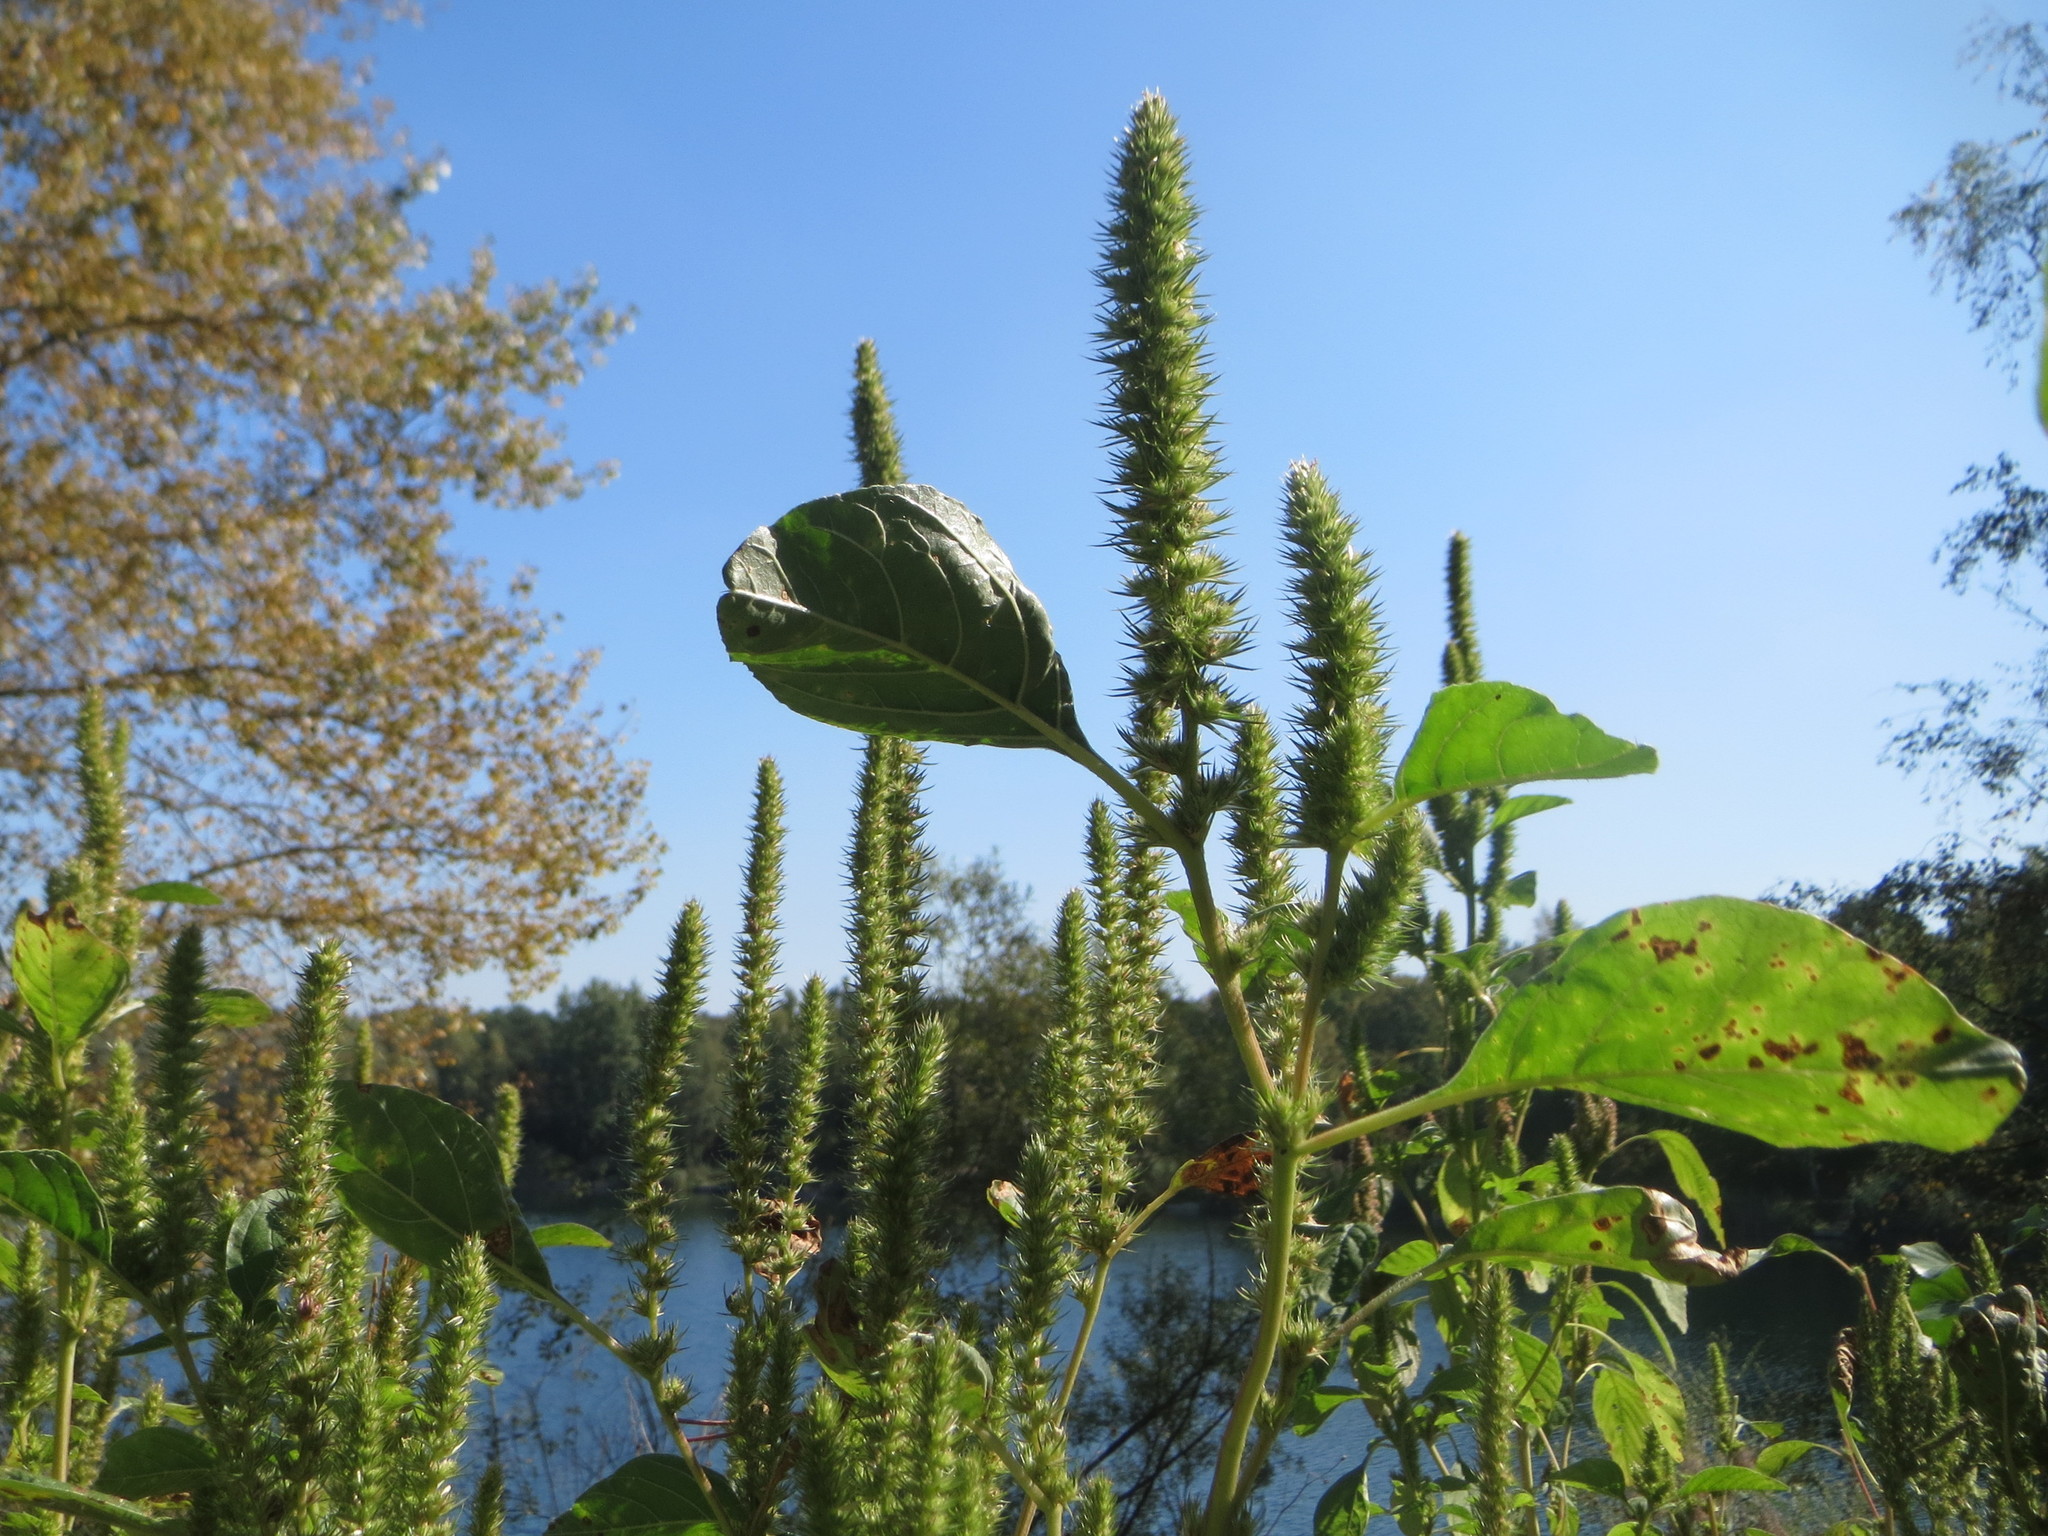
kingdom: Plantae
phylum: Tracheophyta
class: Magnoliopsida
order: Caryophyllales
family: Amaranthaceae
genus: Amaranthus
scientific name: Amaranthus powellii
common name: Powell's amaranth
